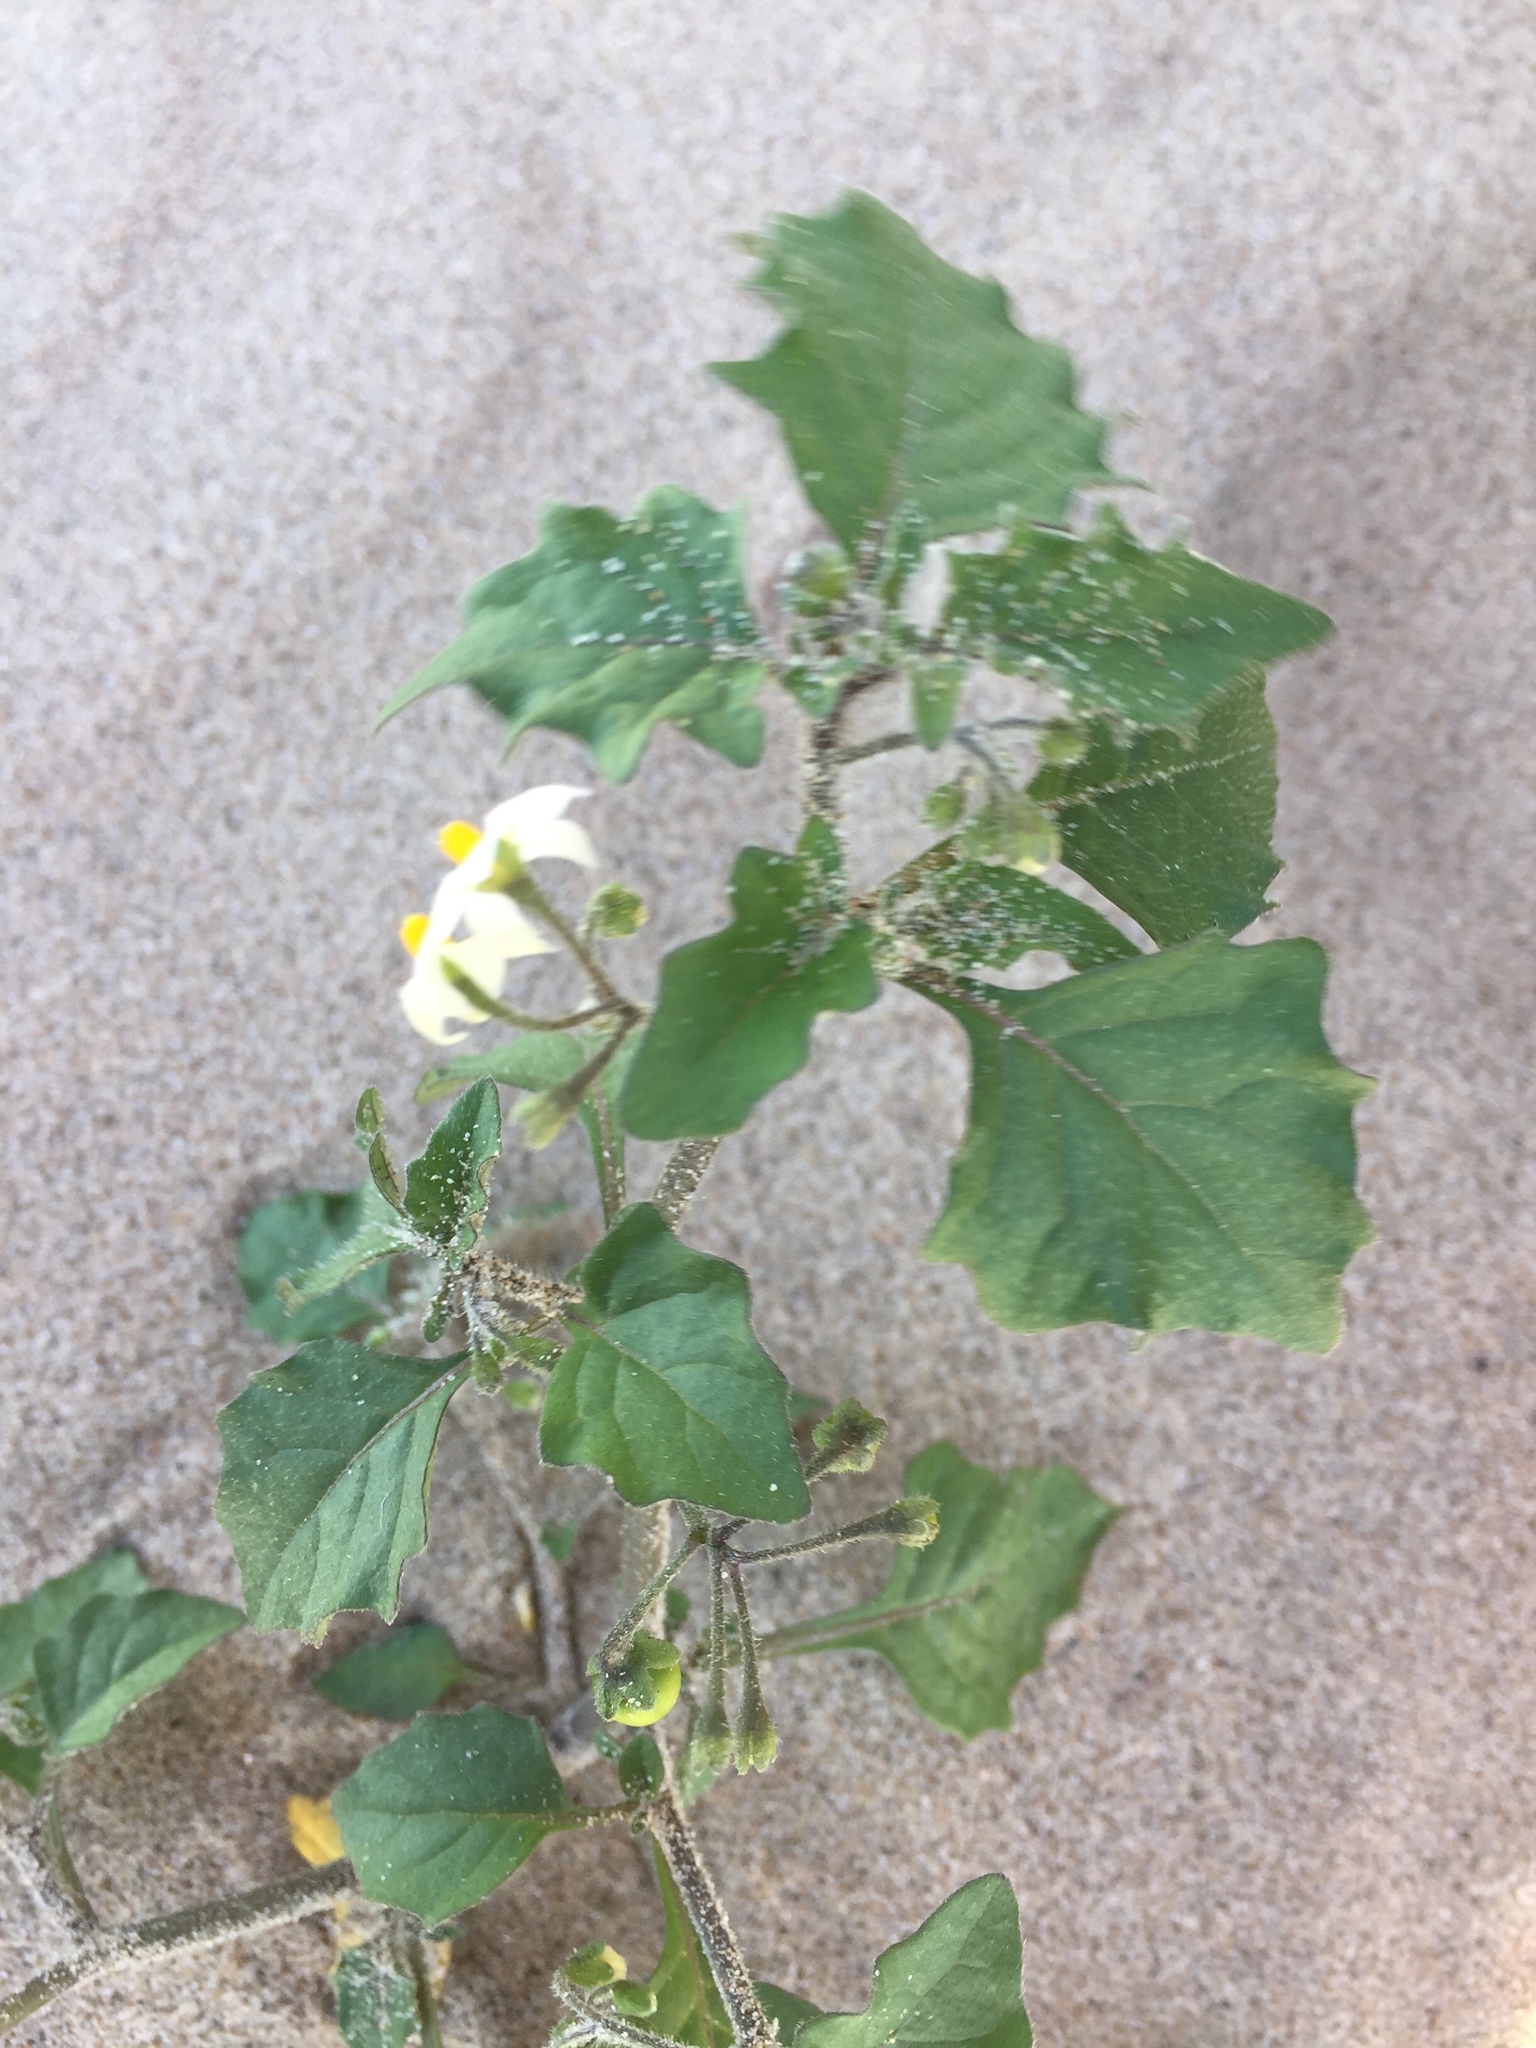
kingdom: Plantae
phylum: Tracheophyta
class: Magnoliopsida
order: Solanales
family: Solanaceae
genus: Solanum
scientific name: Solanum nigrum
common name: Black nightshade
